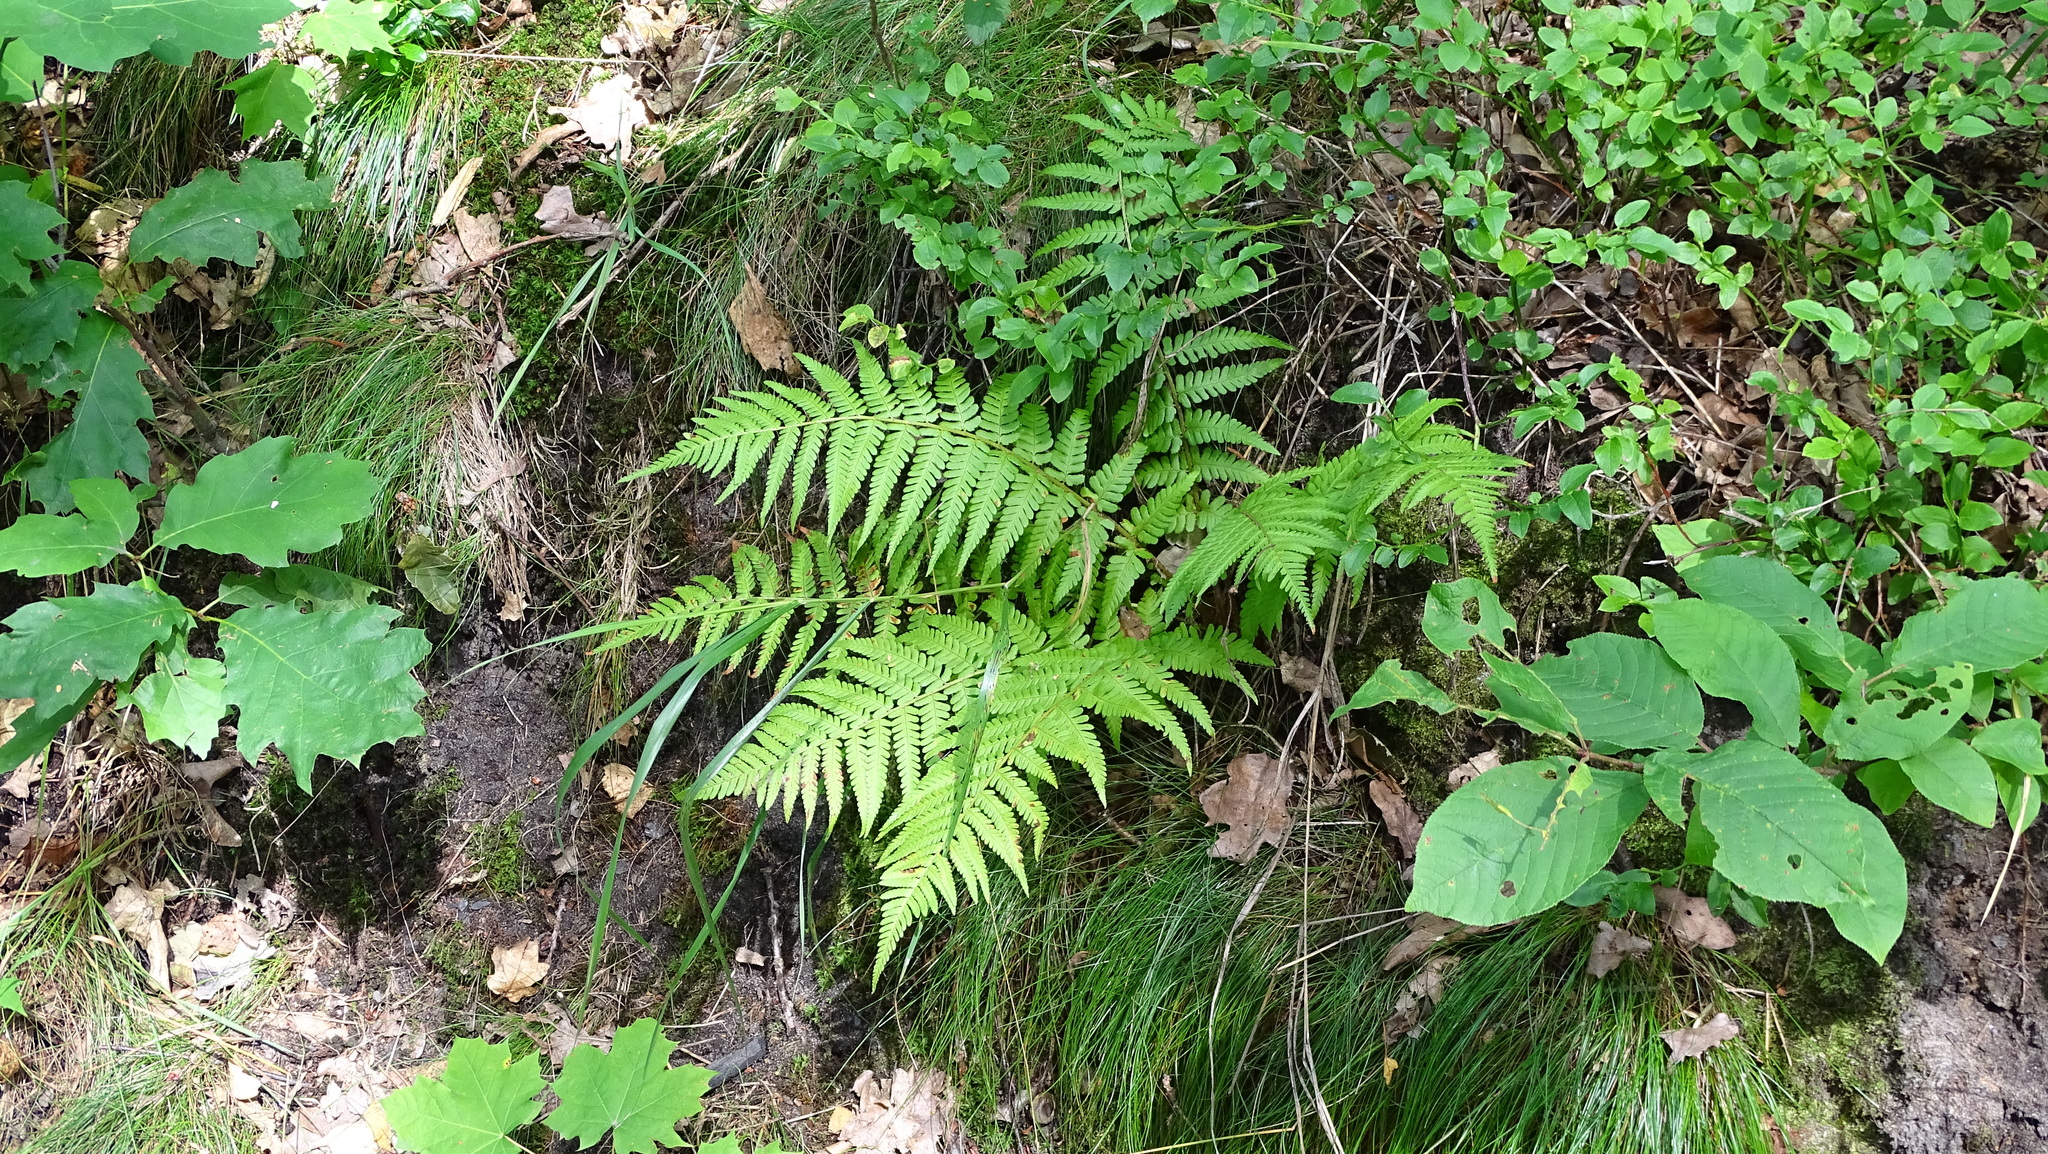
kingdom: Plantae
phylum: Tracheophyta
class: Polypodiopsida
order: Polypodiales
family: Dryopteridaceae
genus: Dryopteris
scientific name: Dryopteris filix-mas
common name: Male fern
